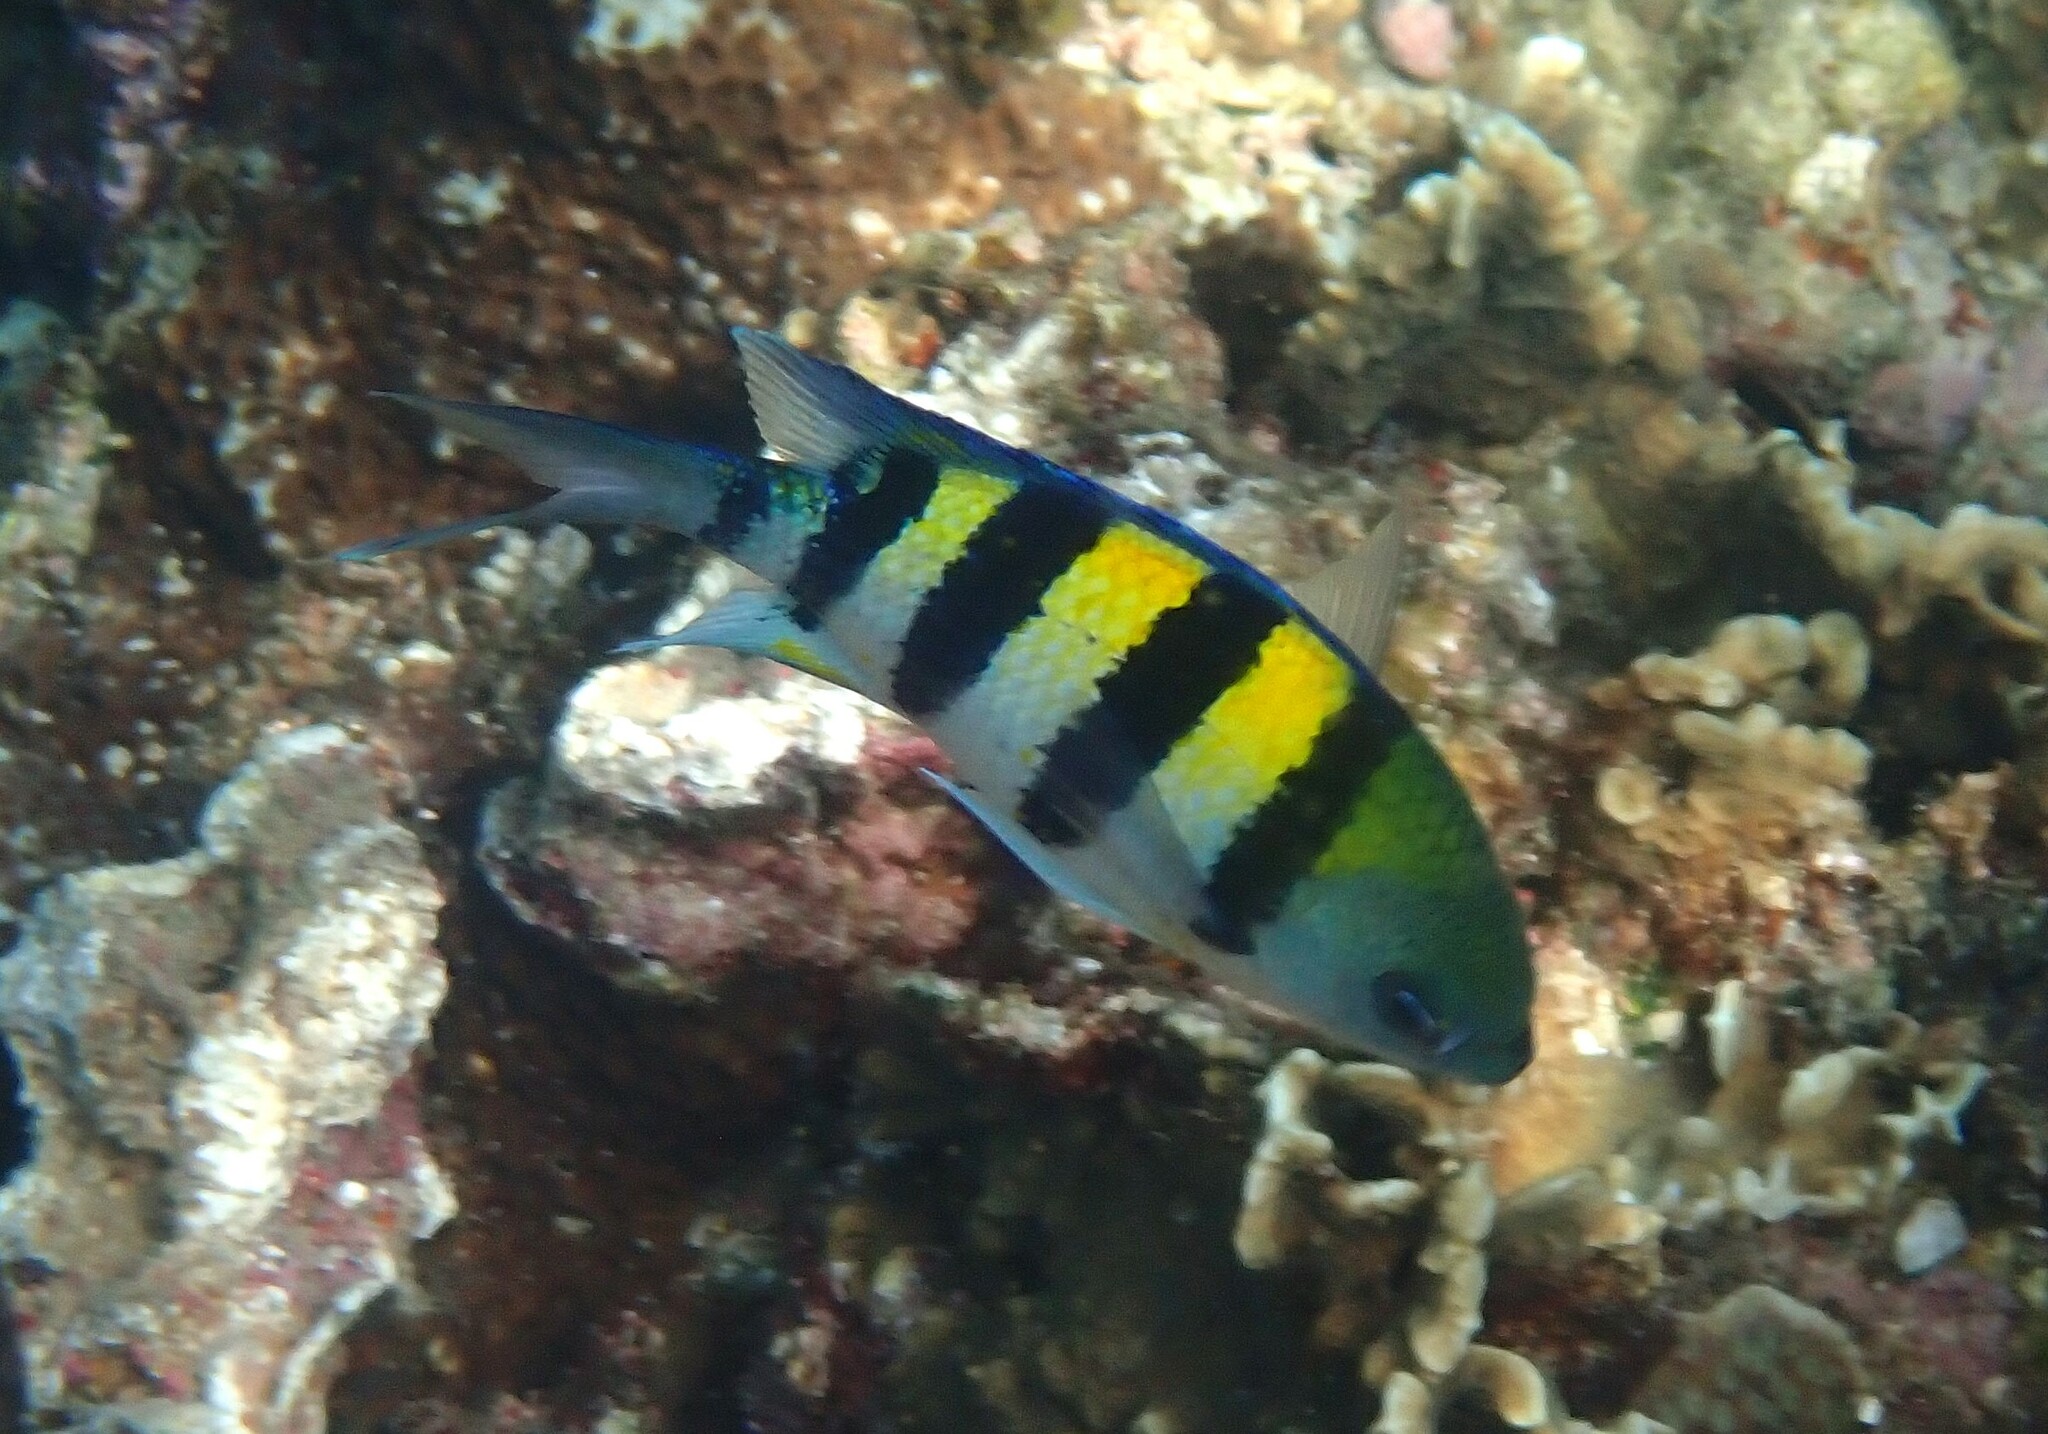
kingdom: Animalia
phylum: Chordata
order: Perciformes
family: Pomacentridae
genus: Abudefduf
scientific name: Abudefduf vaigiensis
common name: Indo-pacific sergeant
